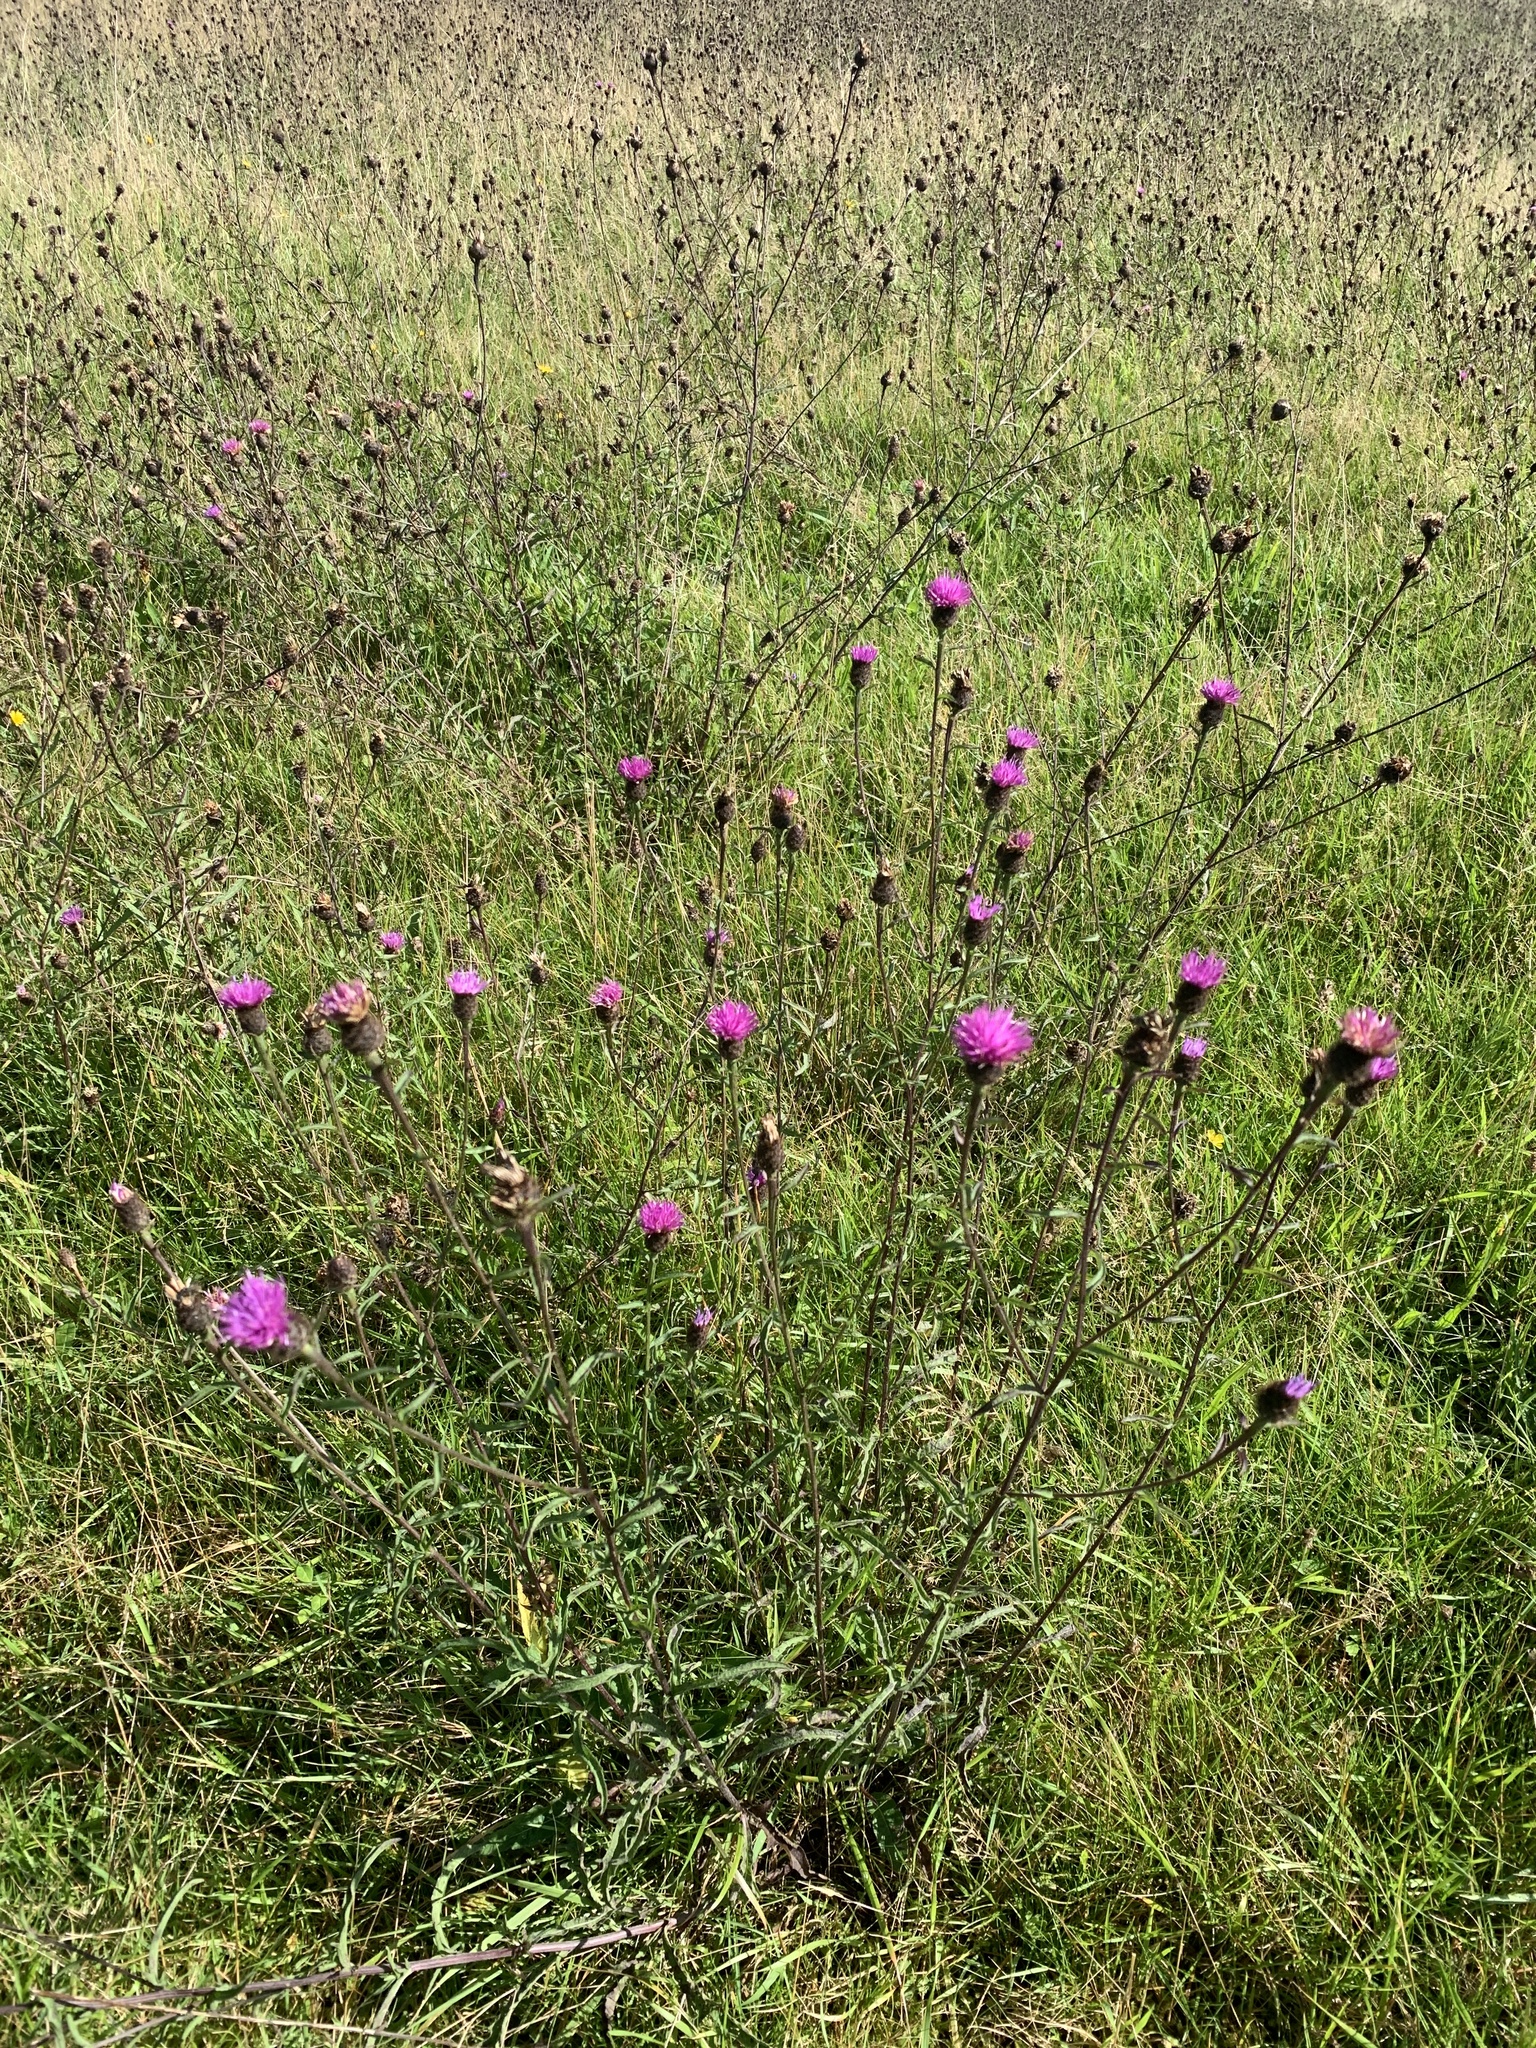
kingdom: Plantae
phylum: Tracheophyta
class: Magnoliopsida
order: Asterales
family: Asteraceae
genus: Centaurea
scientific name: Centaurea nigra
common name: Lesser knapweed
